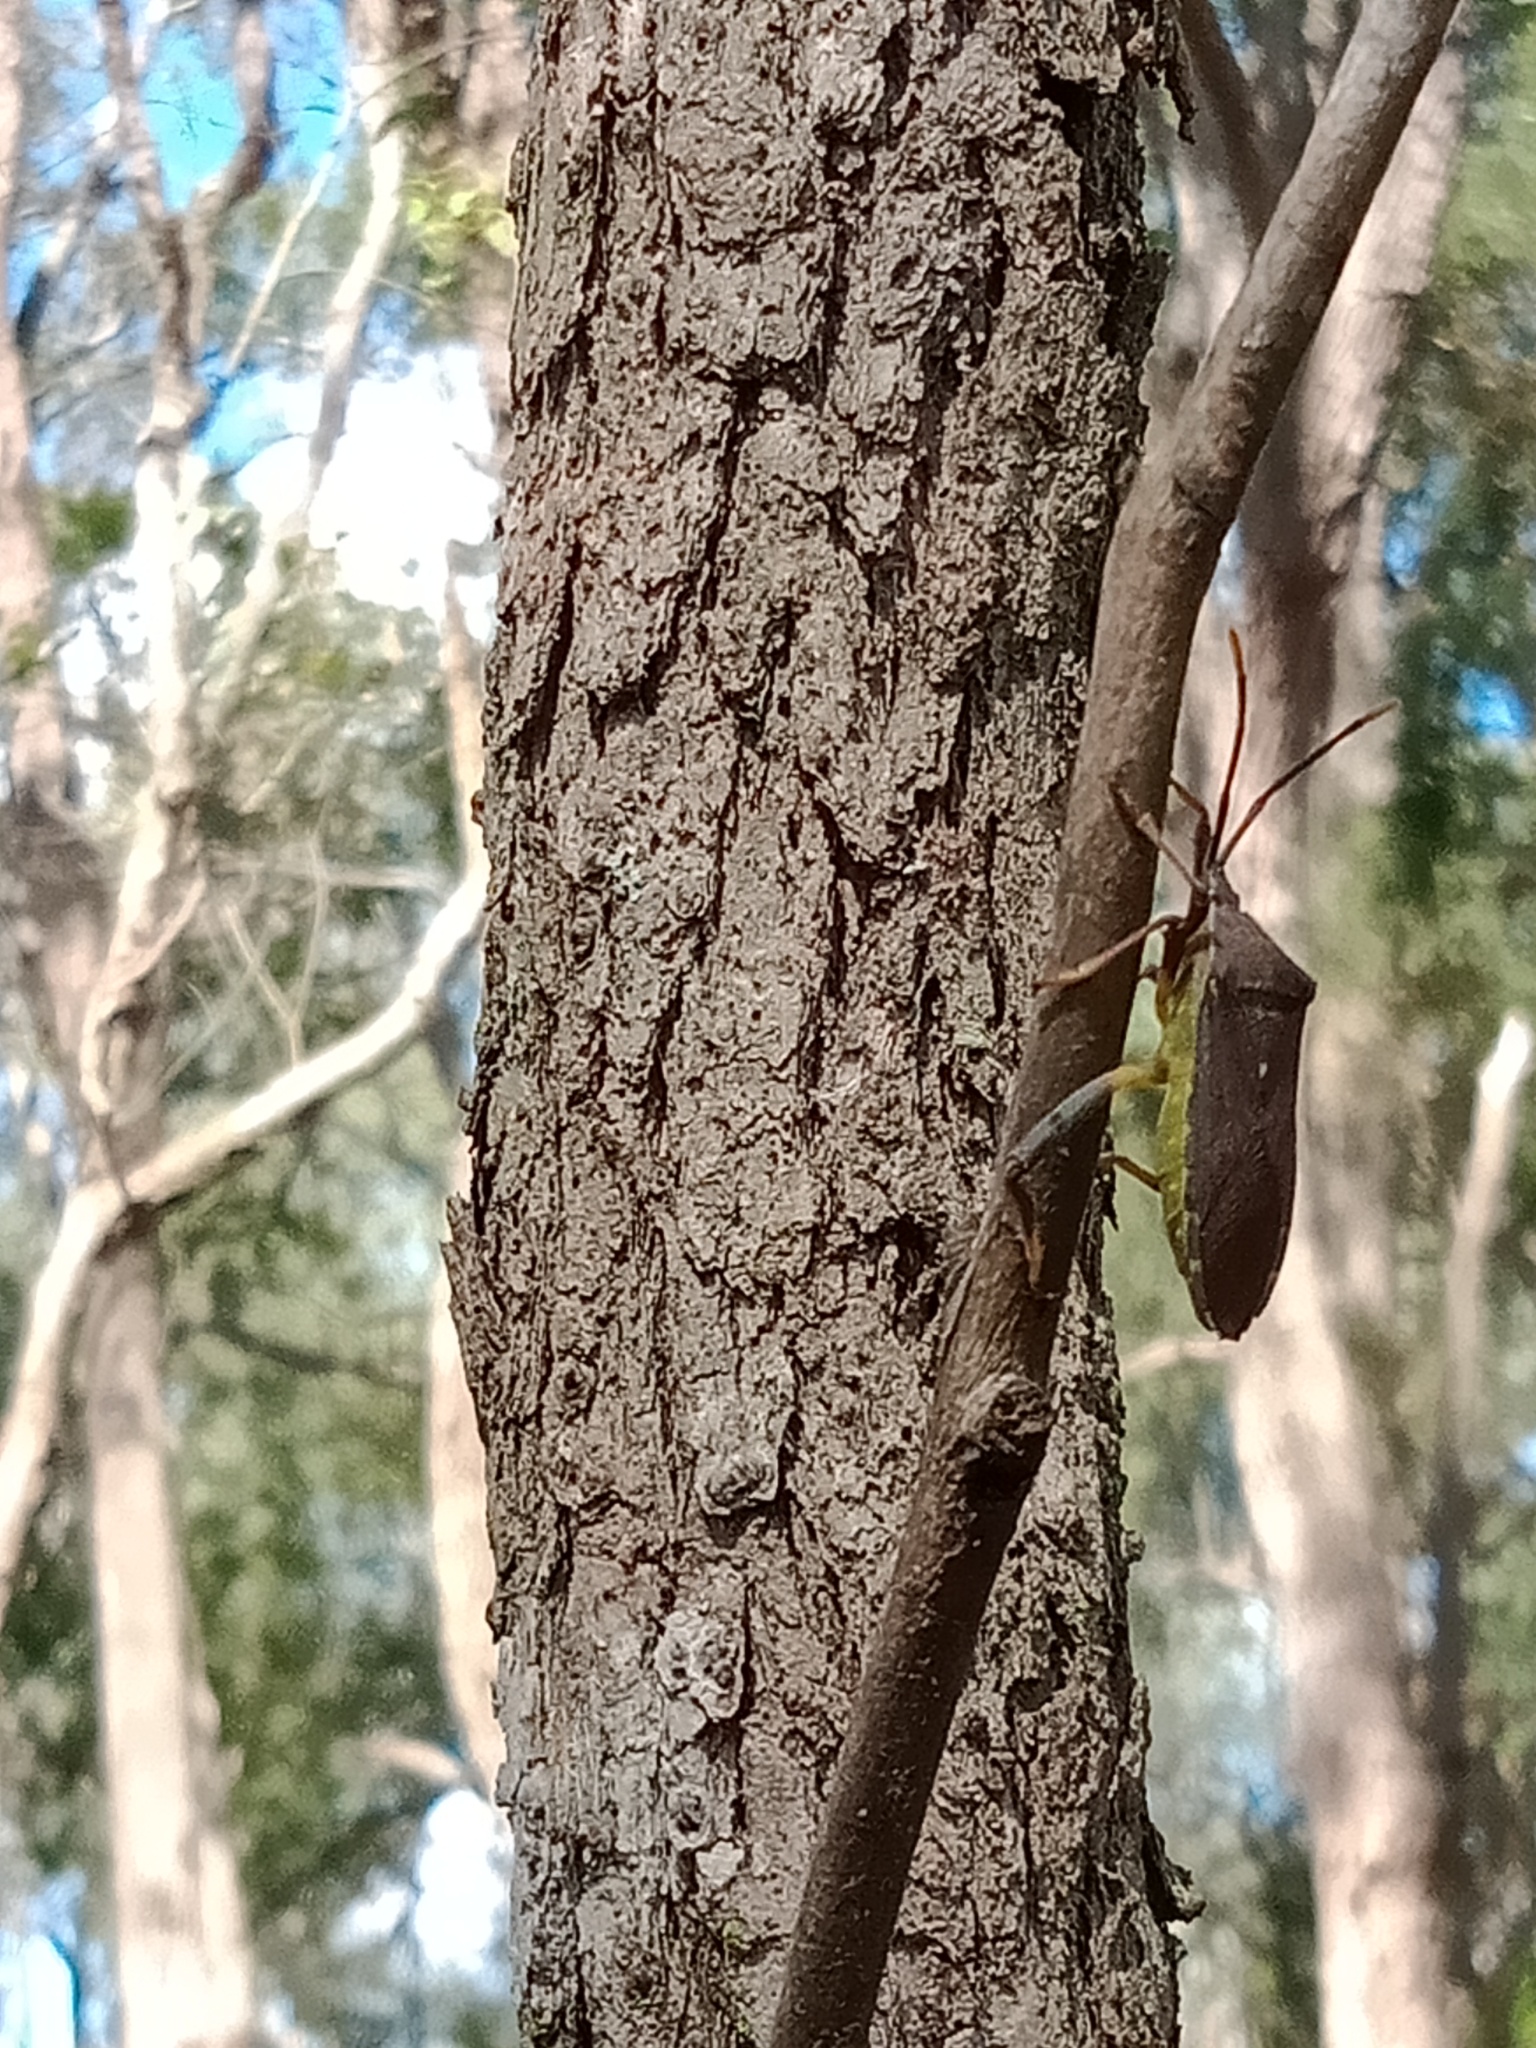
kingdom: Animalia
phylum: Arthropoda
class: Insecta
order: Hemiptera
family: Coreidae
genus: Amorbus
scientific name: Amorbus atomarius
